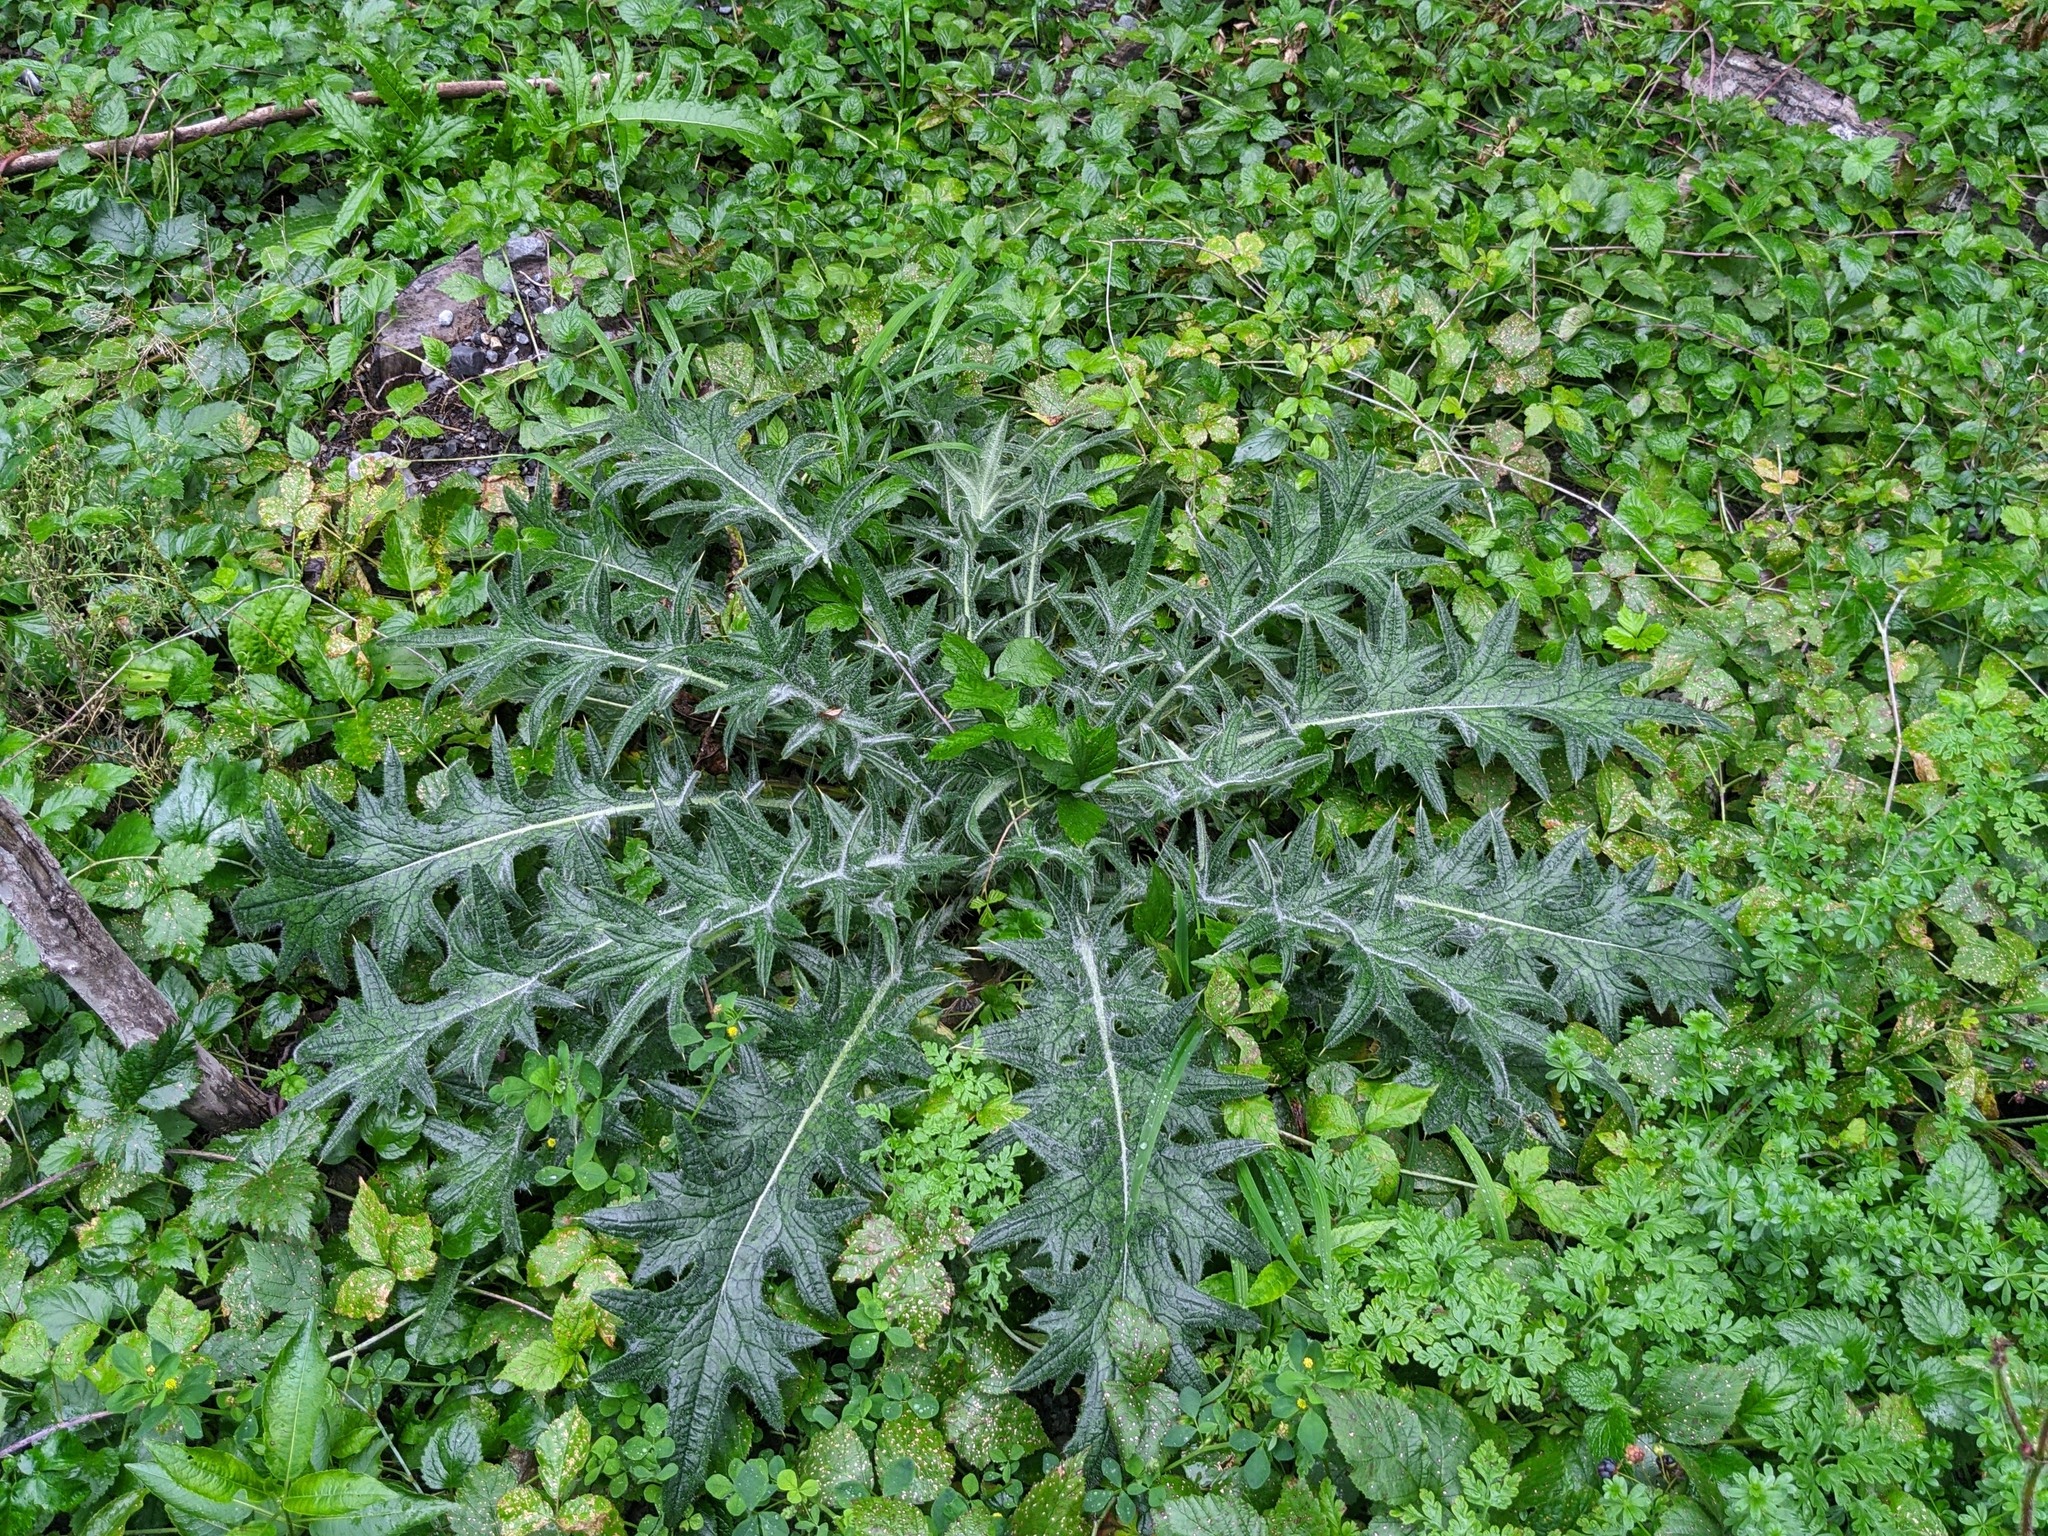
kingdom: Plantae
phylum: Tracheophyta
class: Magnoliopsida
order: Asterales
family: Asteraceae
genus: Cirsium
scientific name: Cirsium vulgare
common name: Bull thistle
